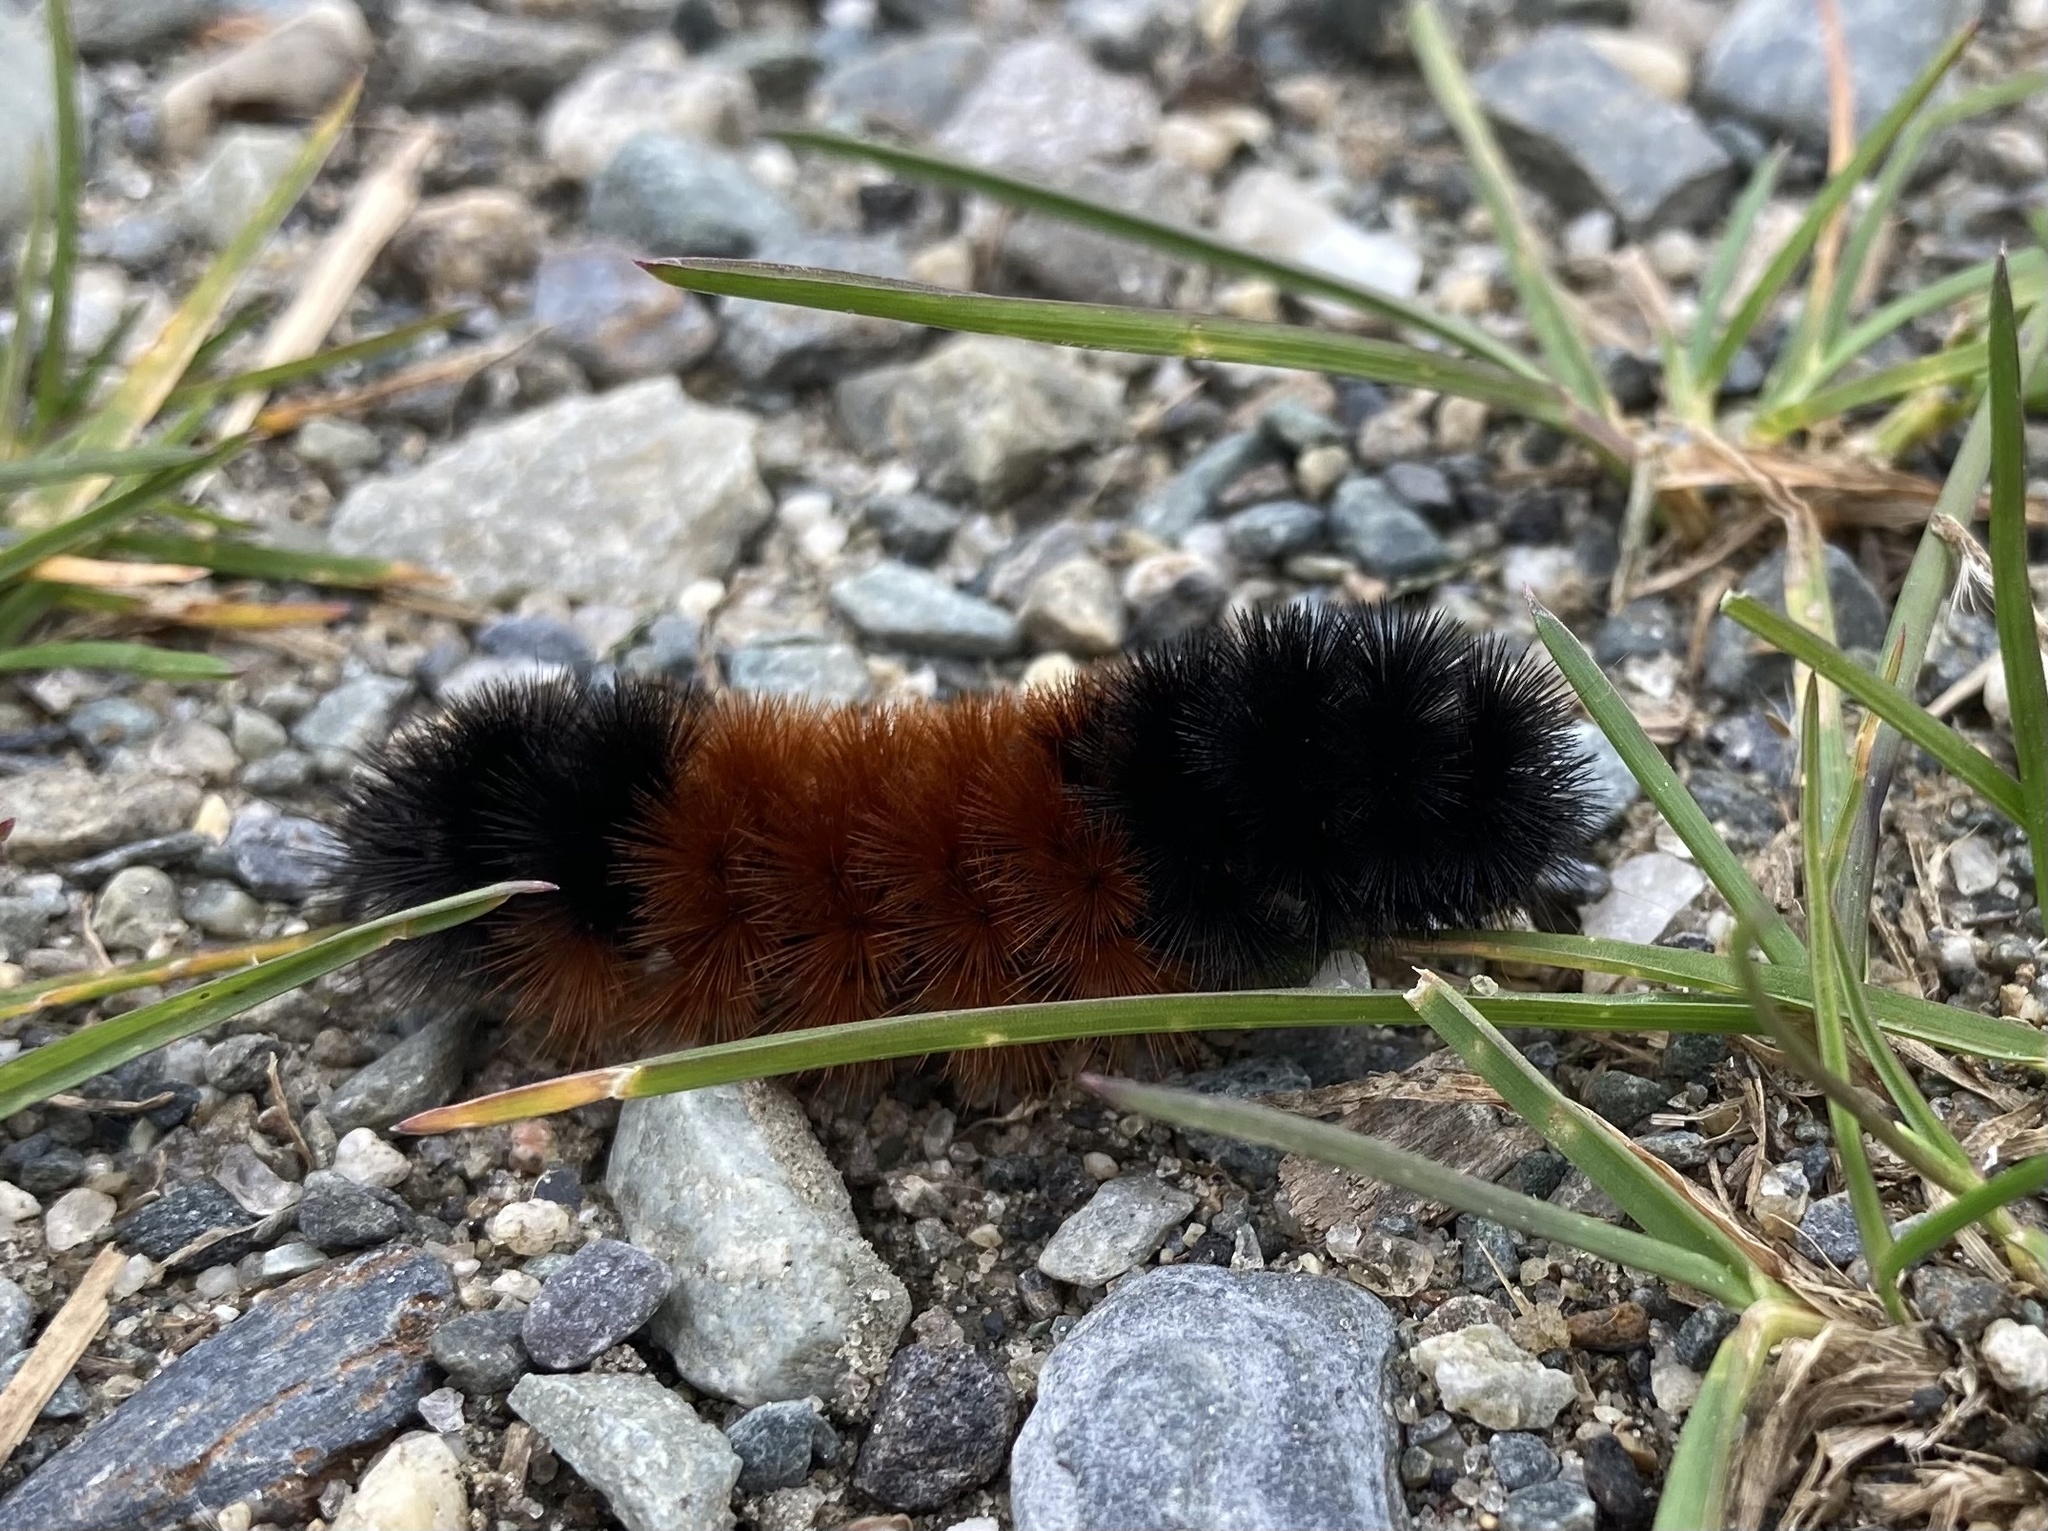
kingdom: Animalia
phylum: Arthropoda
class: Insecta
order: Lepidoptera
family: Erebidae
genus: Pyrrharctia
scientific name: Pyrrharctia isabella
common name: Isabella tiger moth
